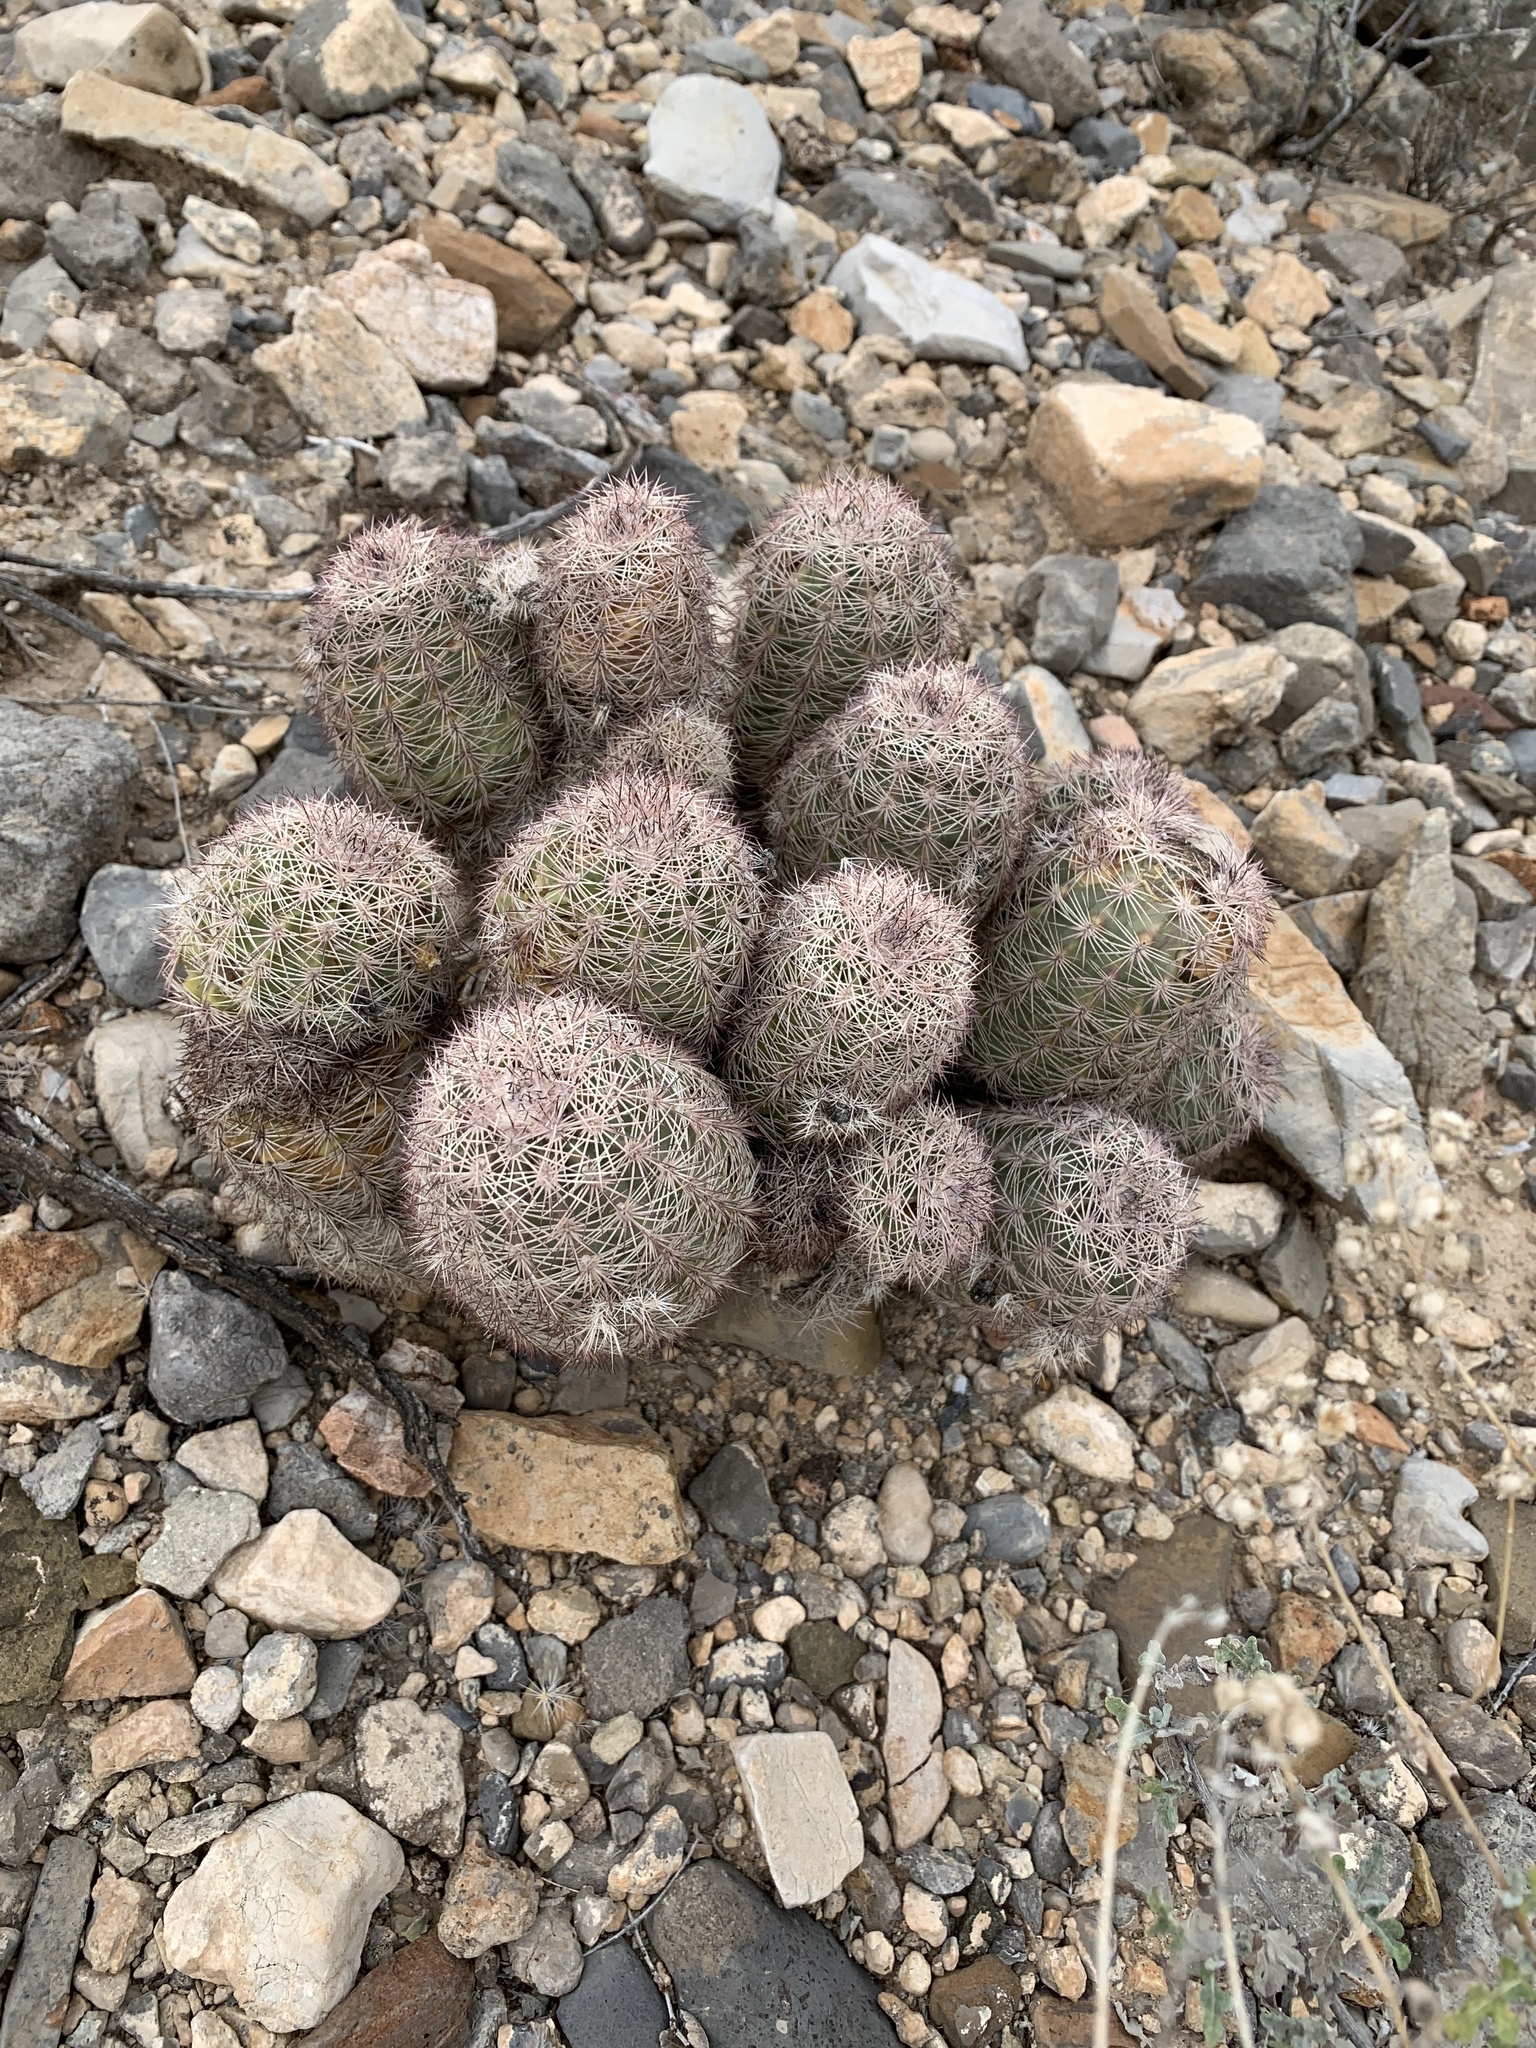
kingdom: Plantae
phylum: Tracheophyta
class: Magnoliopsida
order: Caryophyllales
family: Cactaceae
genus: Echinocereus
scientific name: Echinocereus dasyacanthus
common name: Spiny hedgehog cactus
